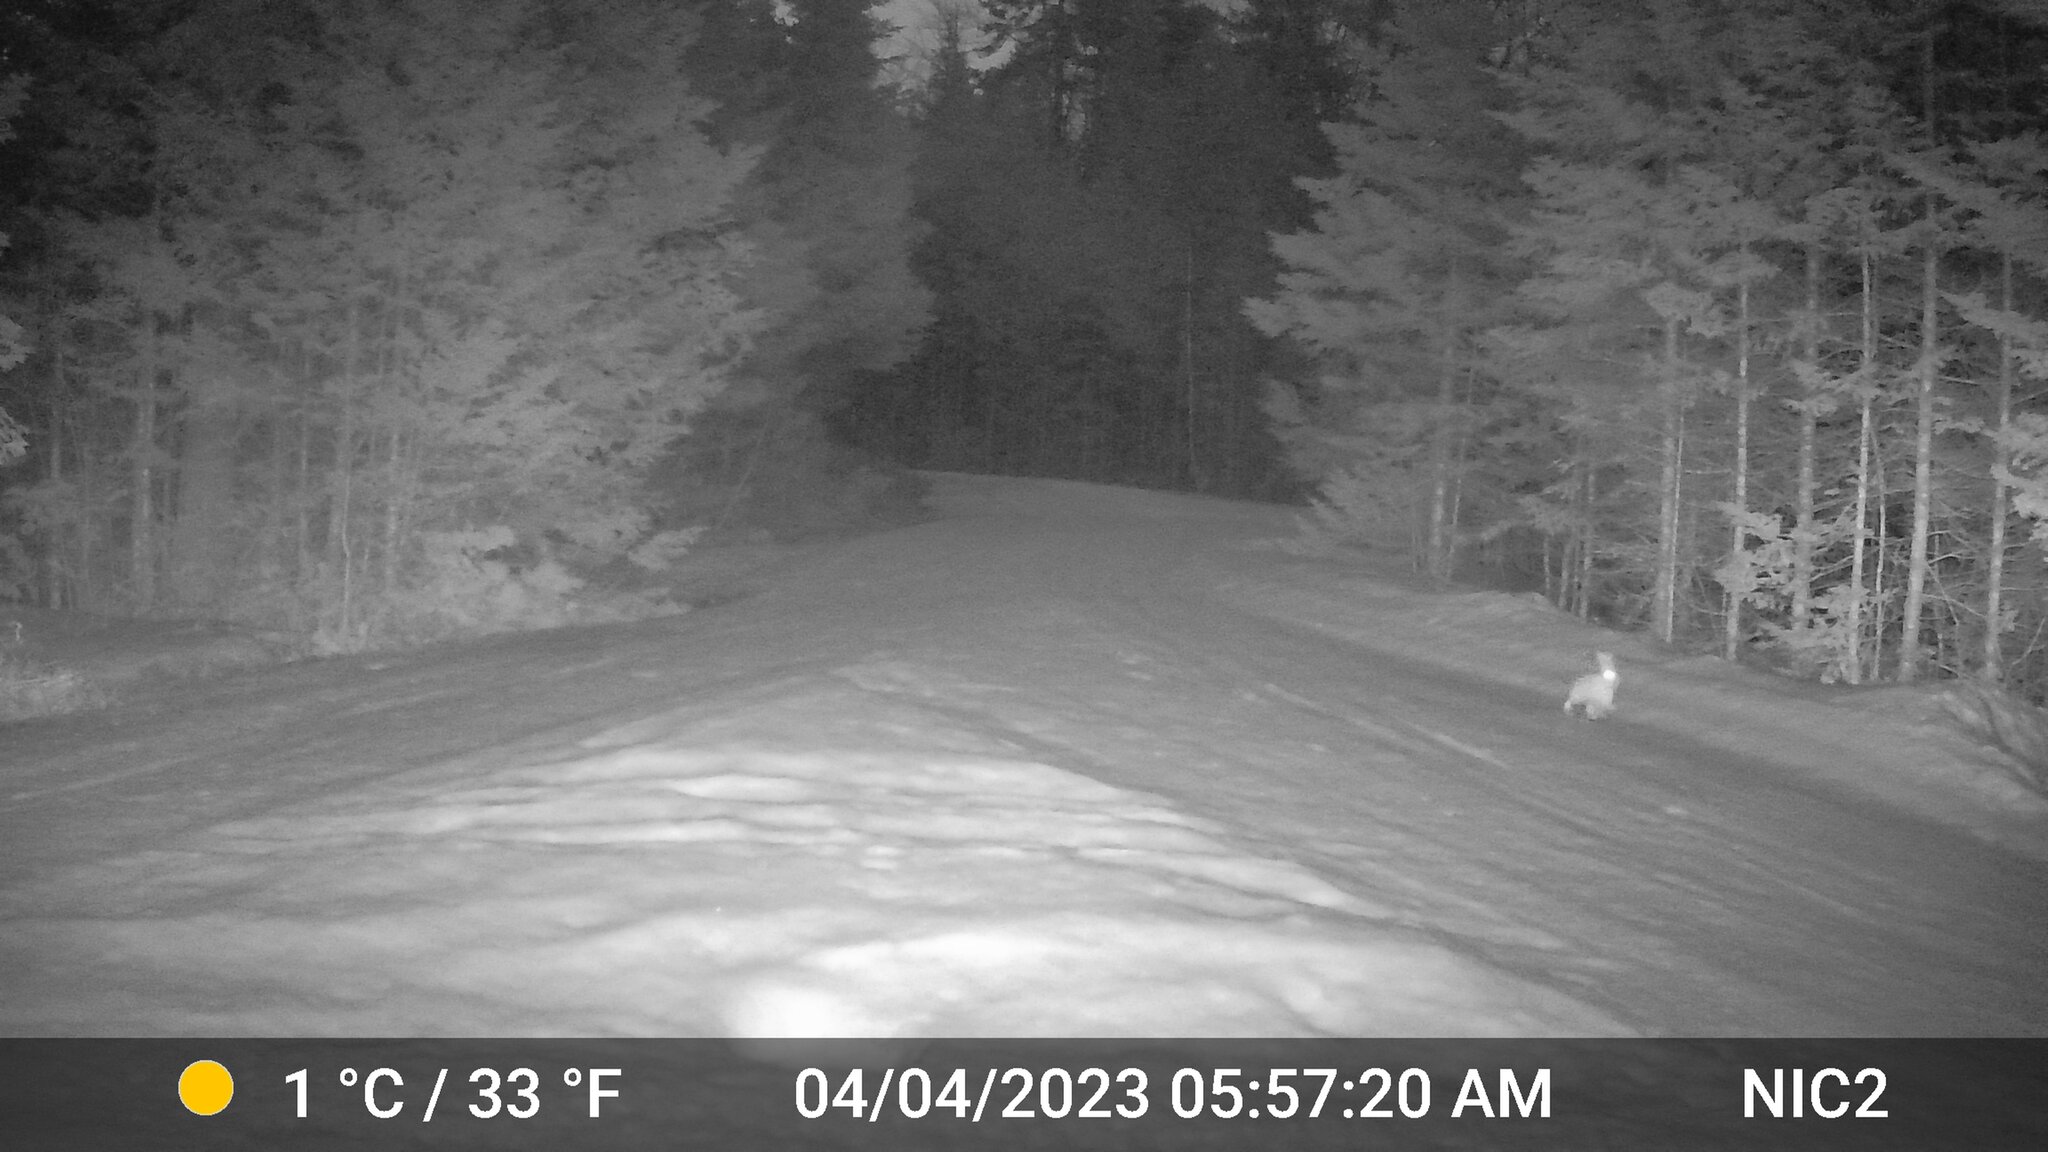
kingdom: Animalia
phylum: Chordata
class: Mammalia
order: Lagomorpha
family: Leporidae
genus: Lepus
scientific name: Lepus americanus
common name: Snowshoe hare
